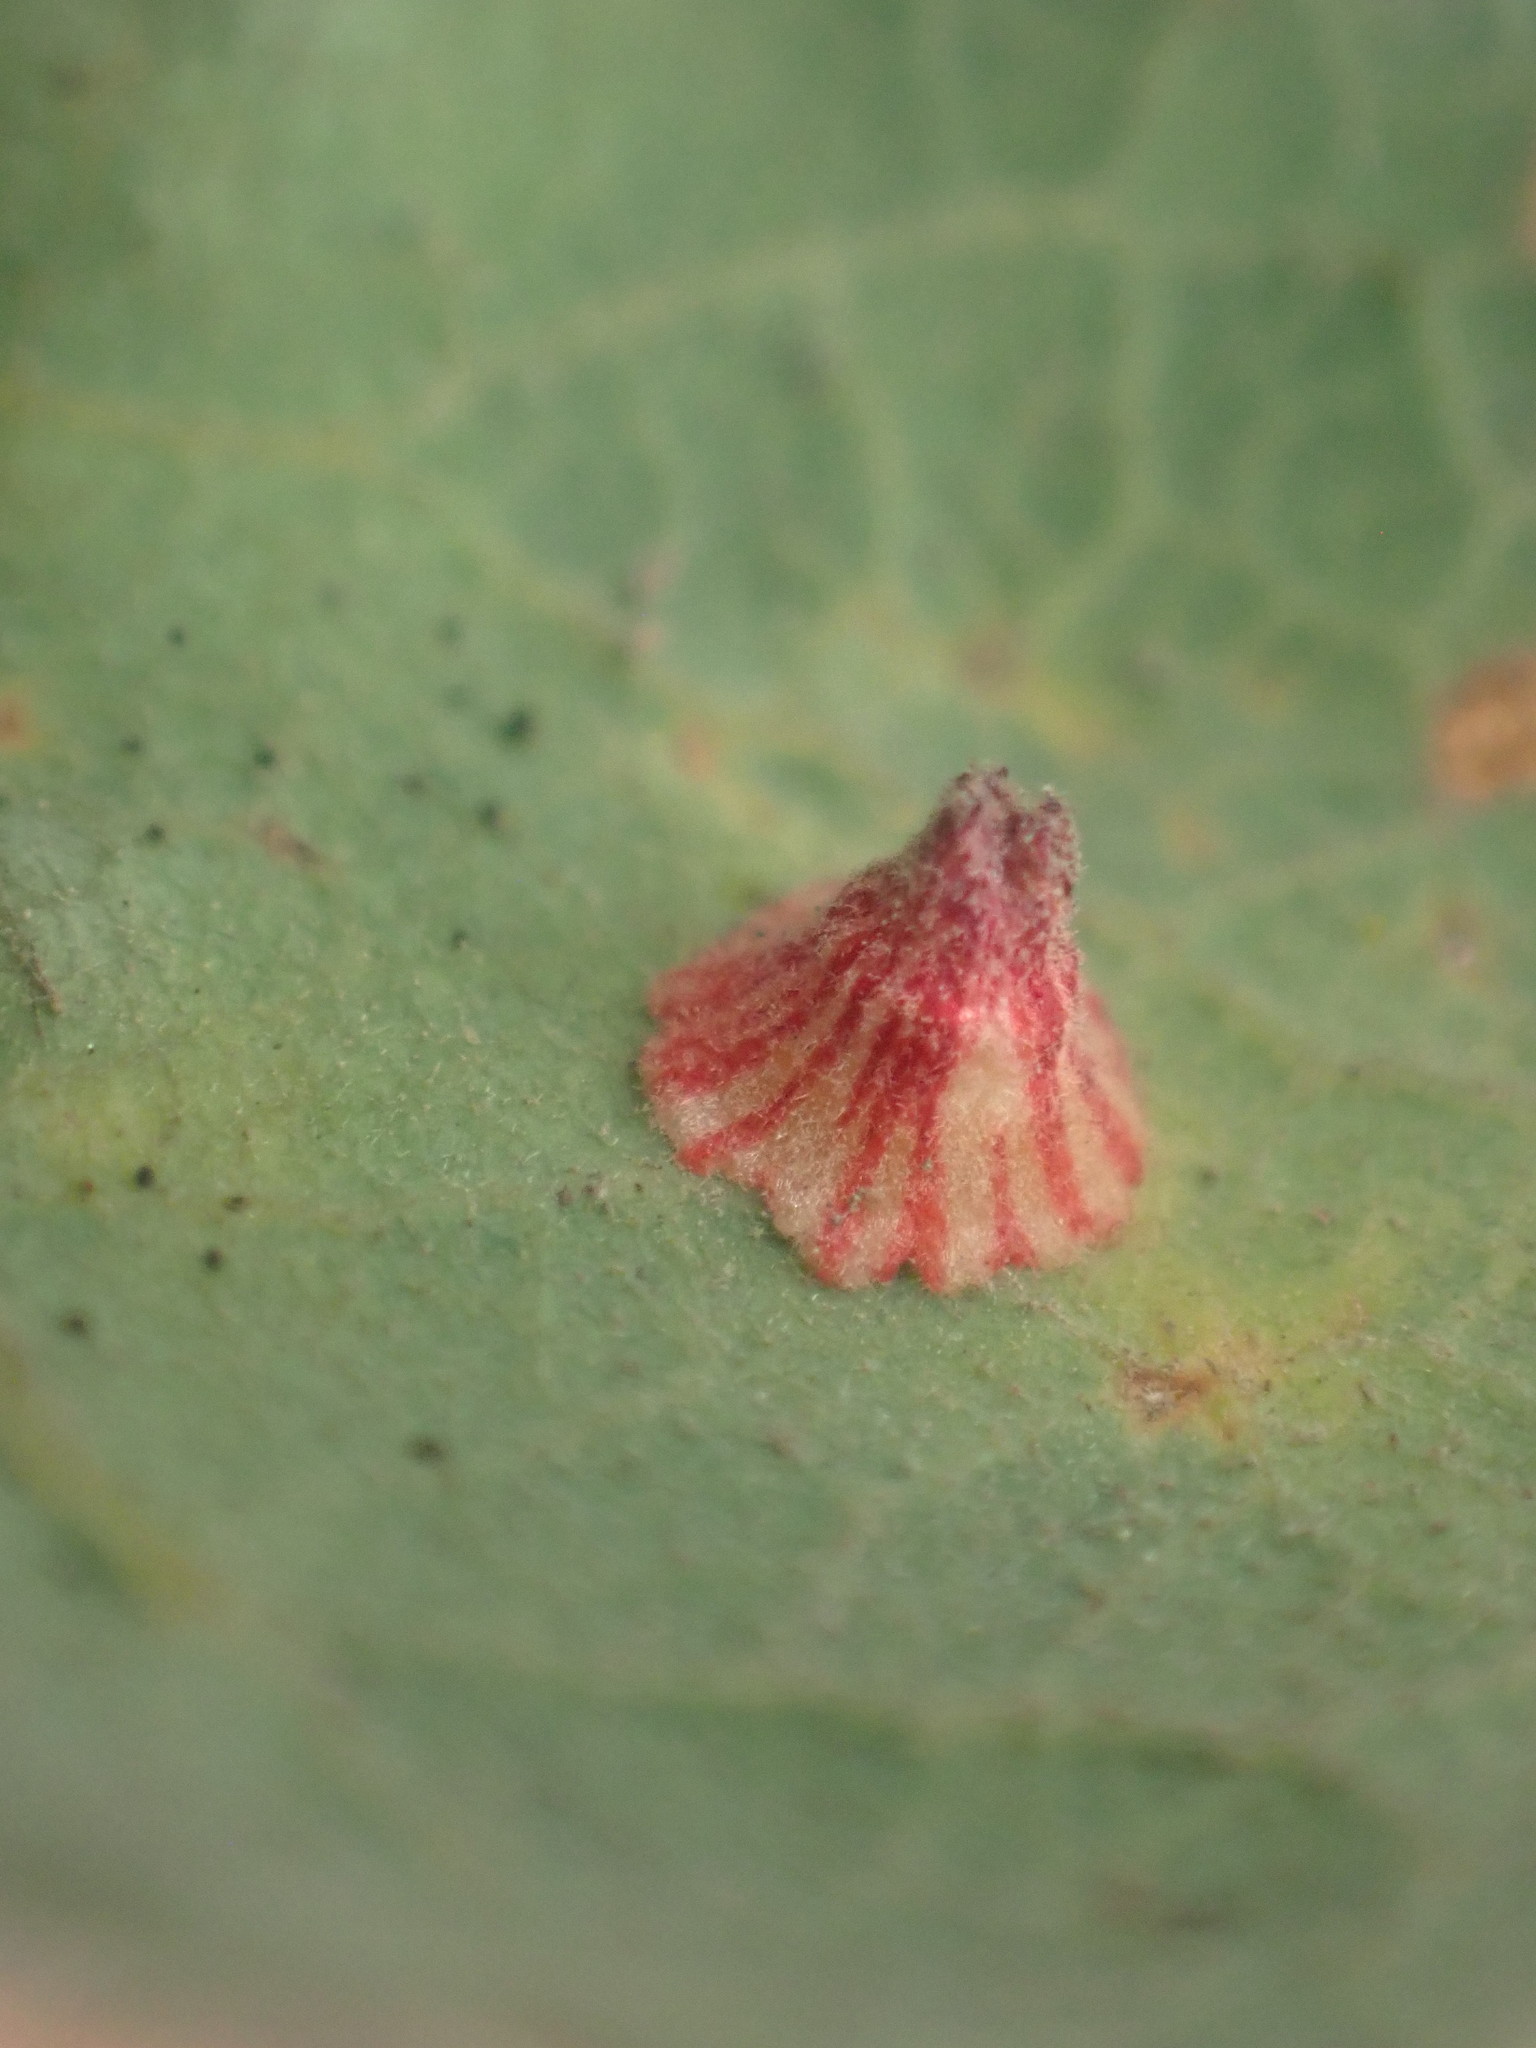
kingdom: Animalia
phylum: Arthropoda
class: Insecta
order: Hymenoptera
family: Cynipidae
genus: Andricus
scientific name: Andricus
